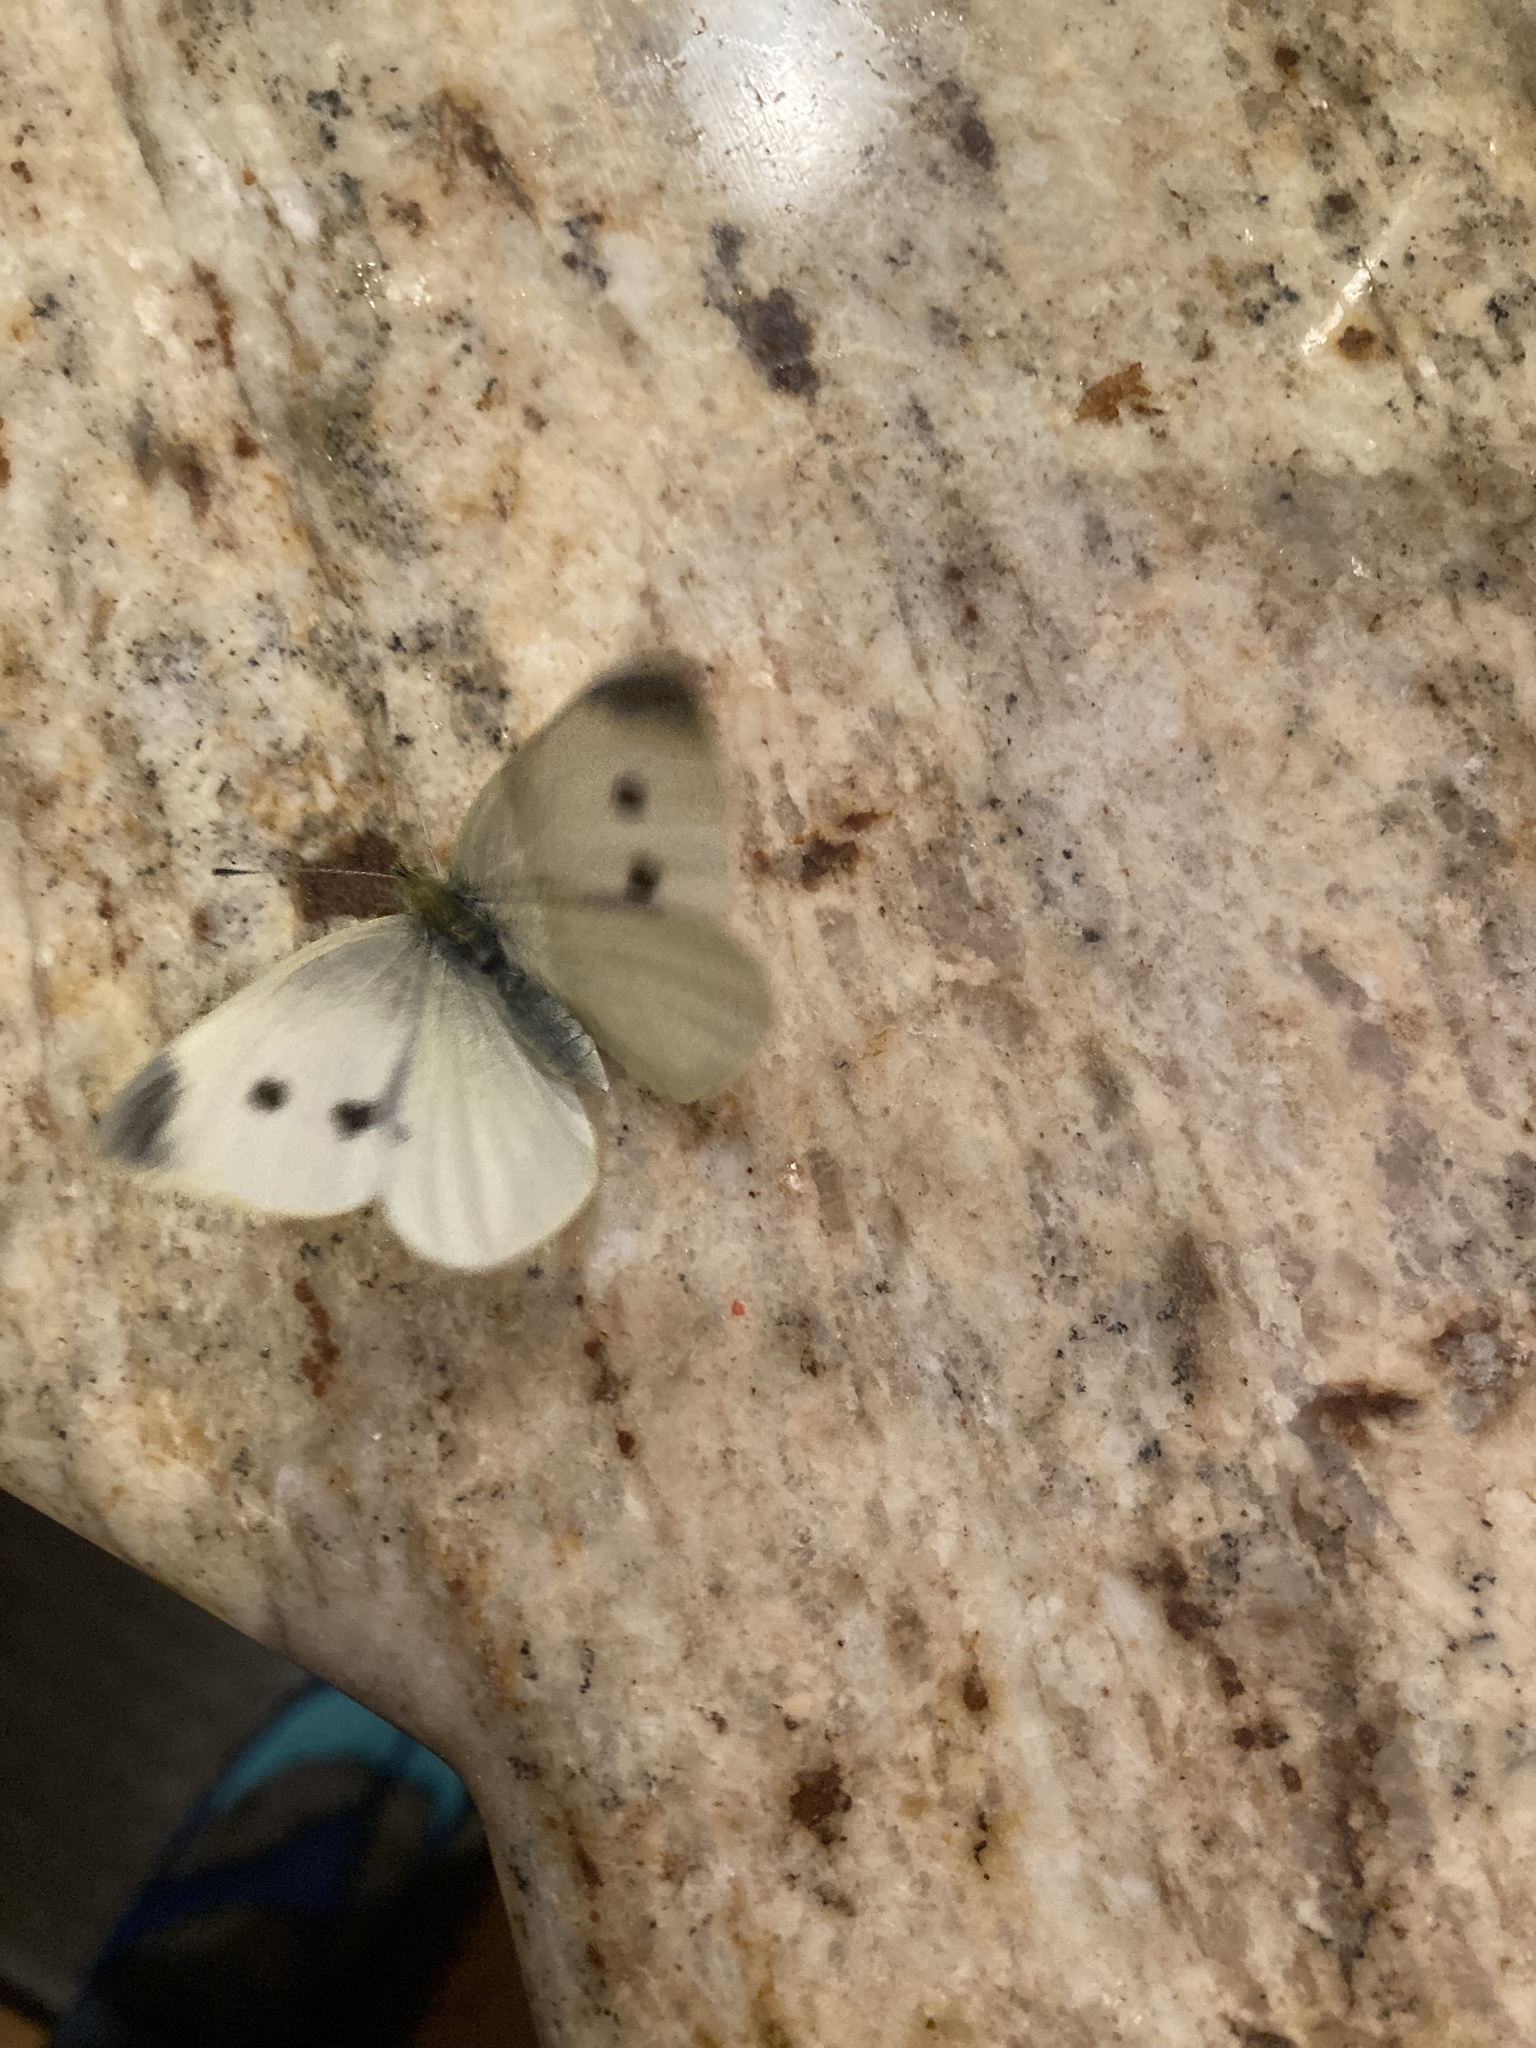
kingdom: Animalia
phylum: Arthropoda
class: Insecta
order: Lepidoptera
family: Pieridae
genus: Pieris
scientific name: Pieris rapae
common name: Small white
